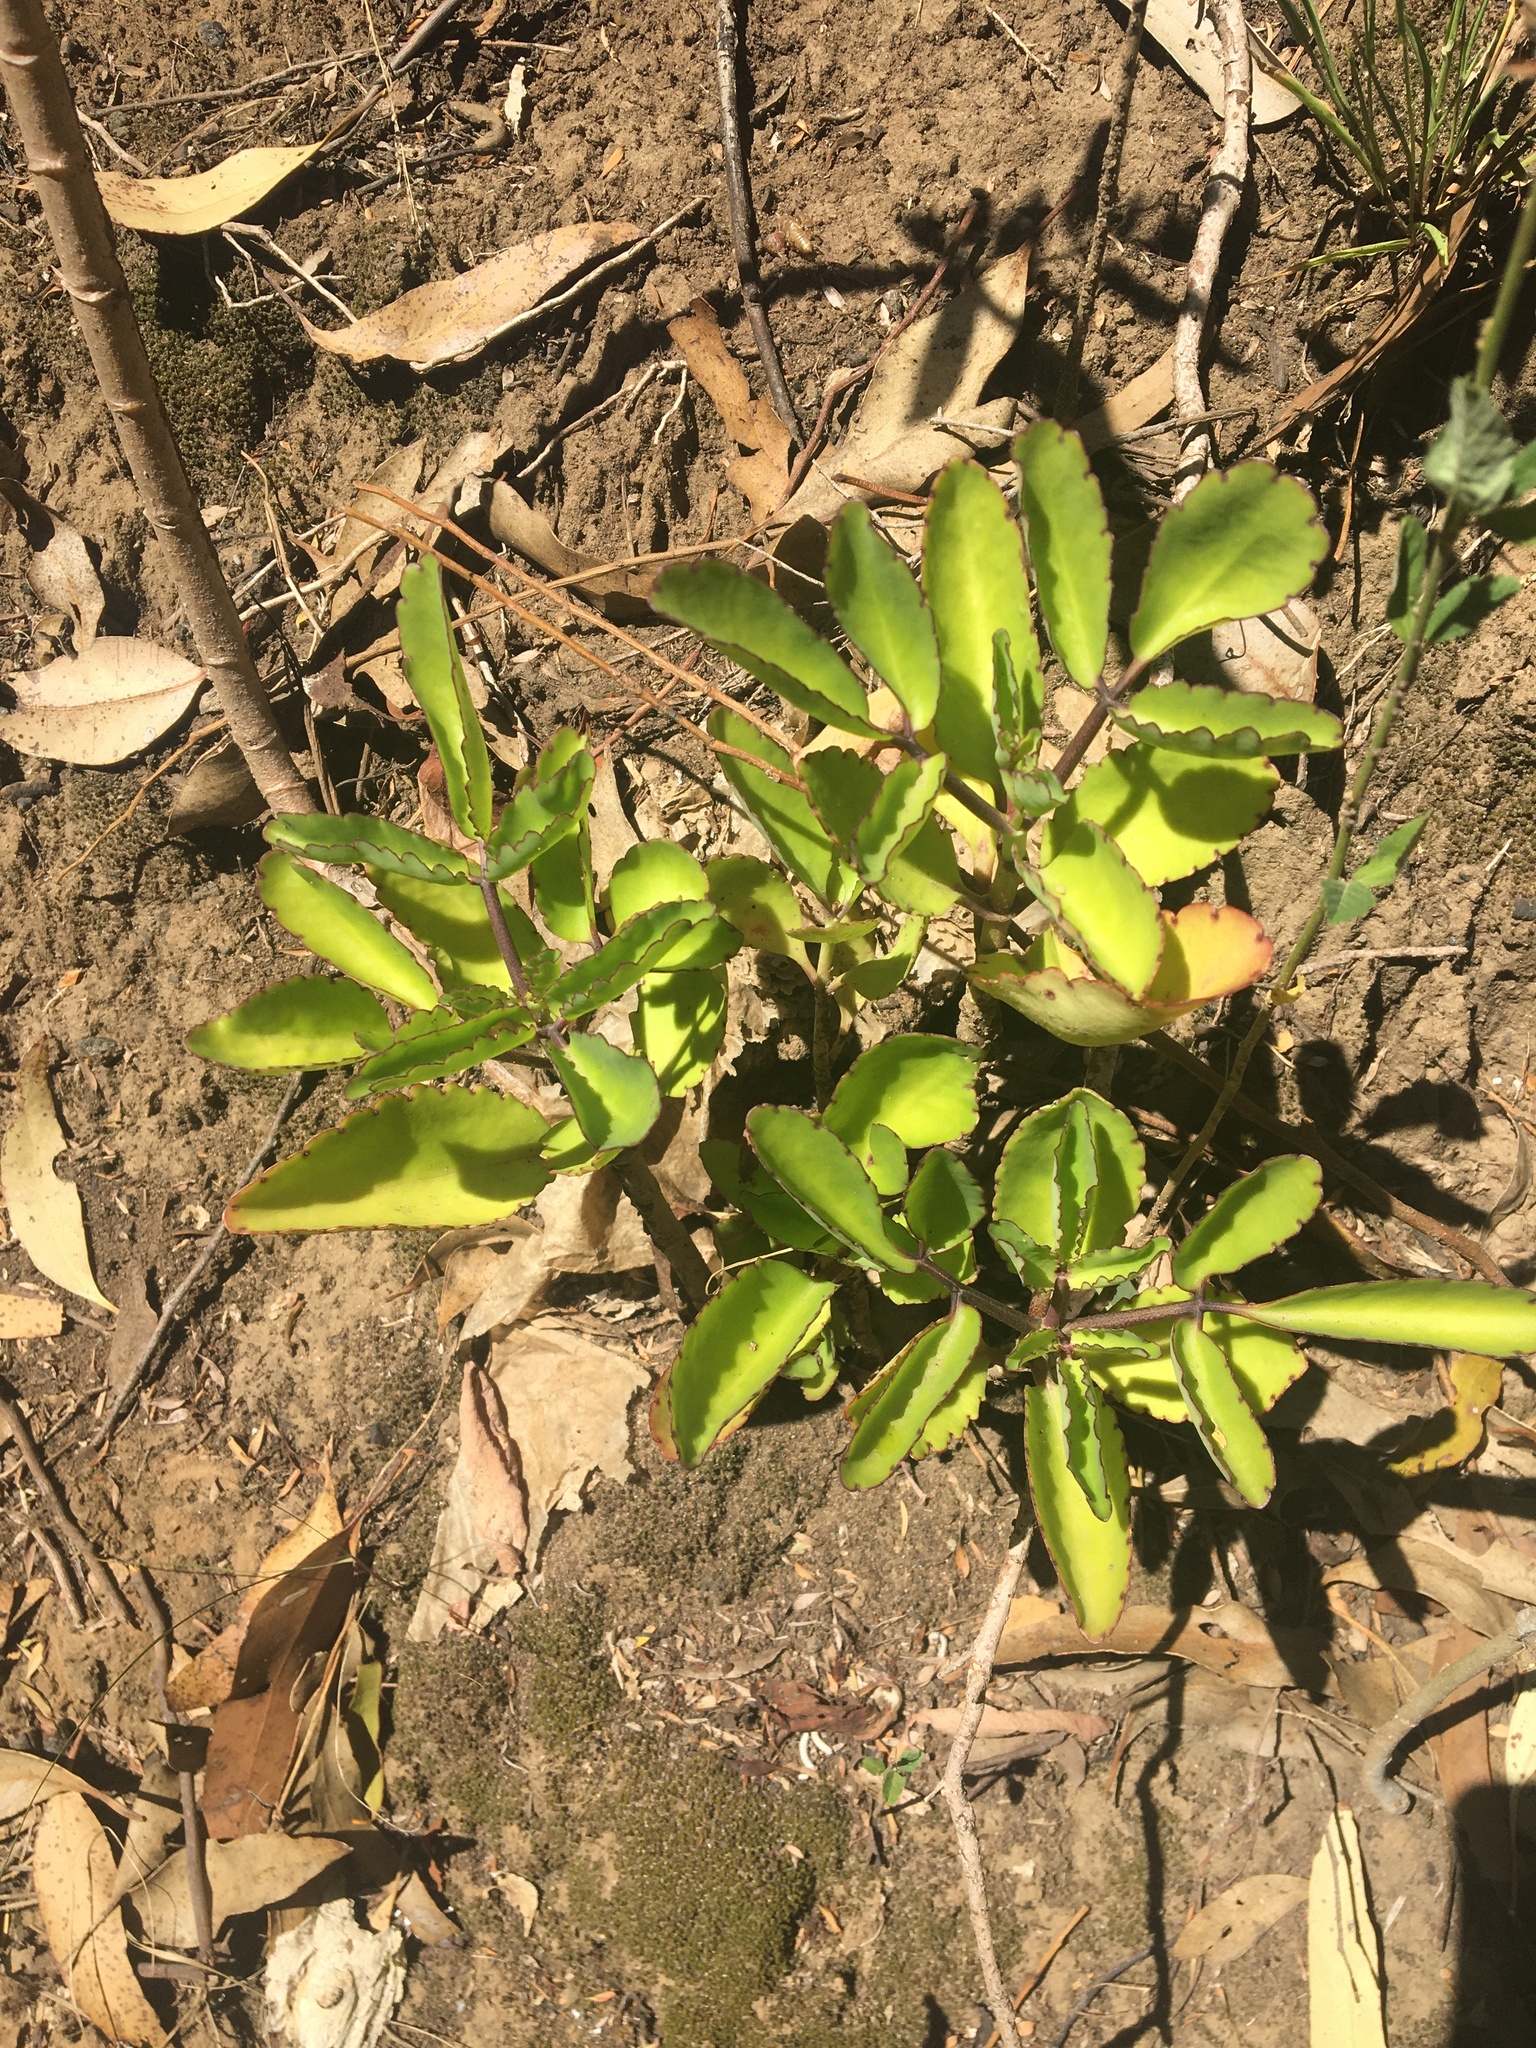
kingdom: Plantae
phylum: Tracheophyta
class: Magnoliopsida
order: Saxifragales
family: Crassulaceae
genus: Kalanchoe
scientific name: Kalanchoe pinnata
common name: Cathedral bells
